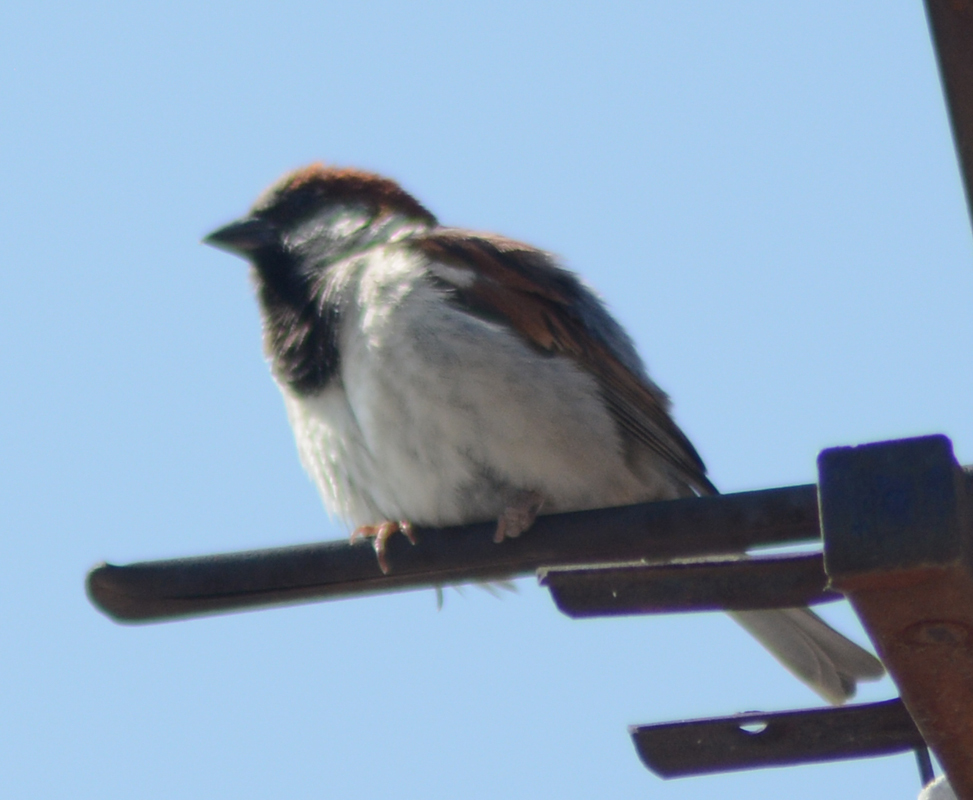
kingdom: Animalia
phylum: Chordata
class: Aves
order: Passeriformes
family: Passeridae
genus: Passer
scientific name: Passer domesticus
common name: House sparrow
